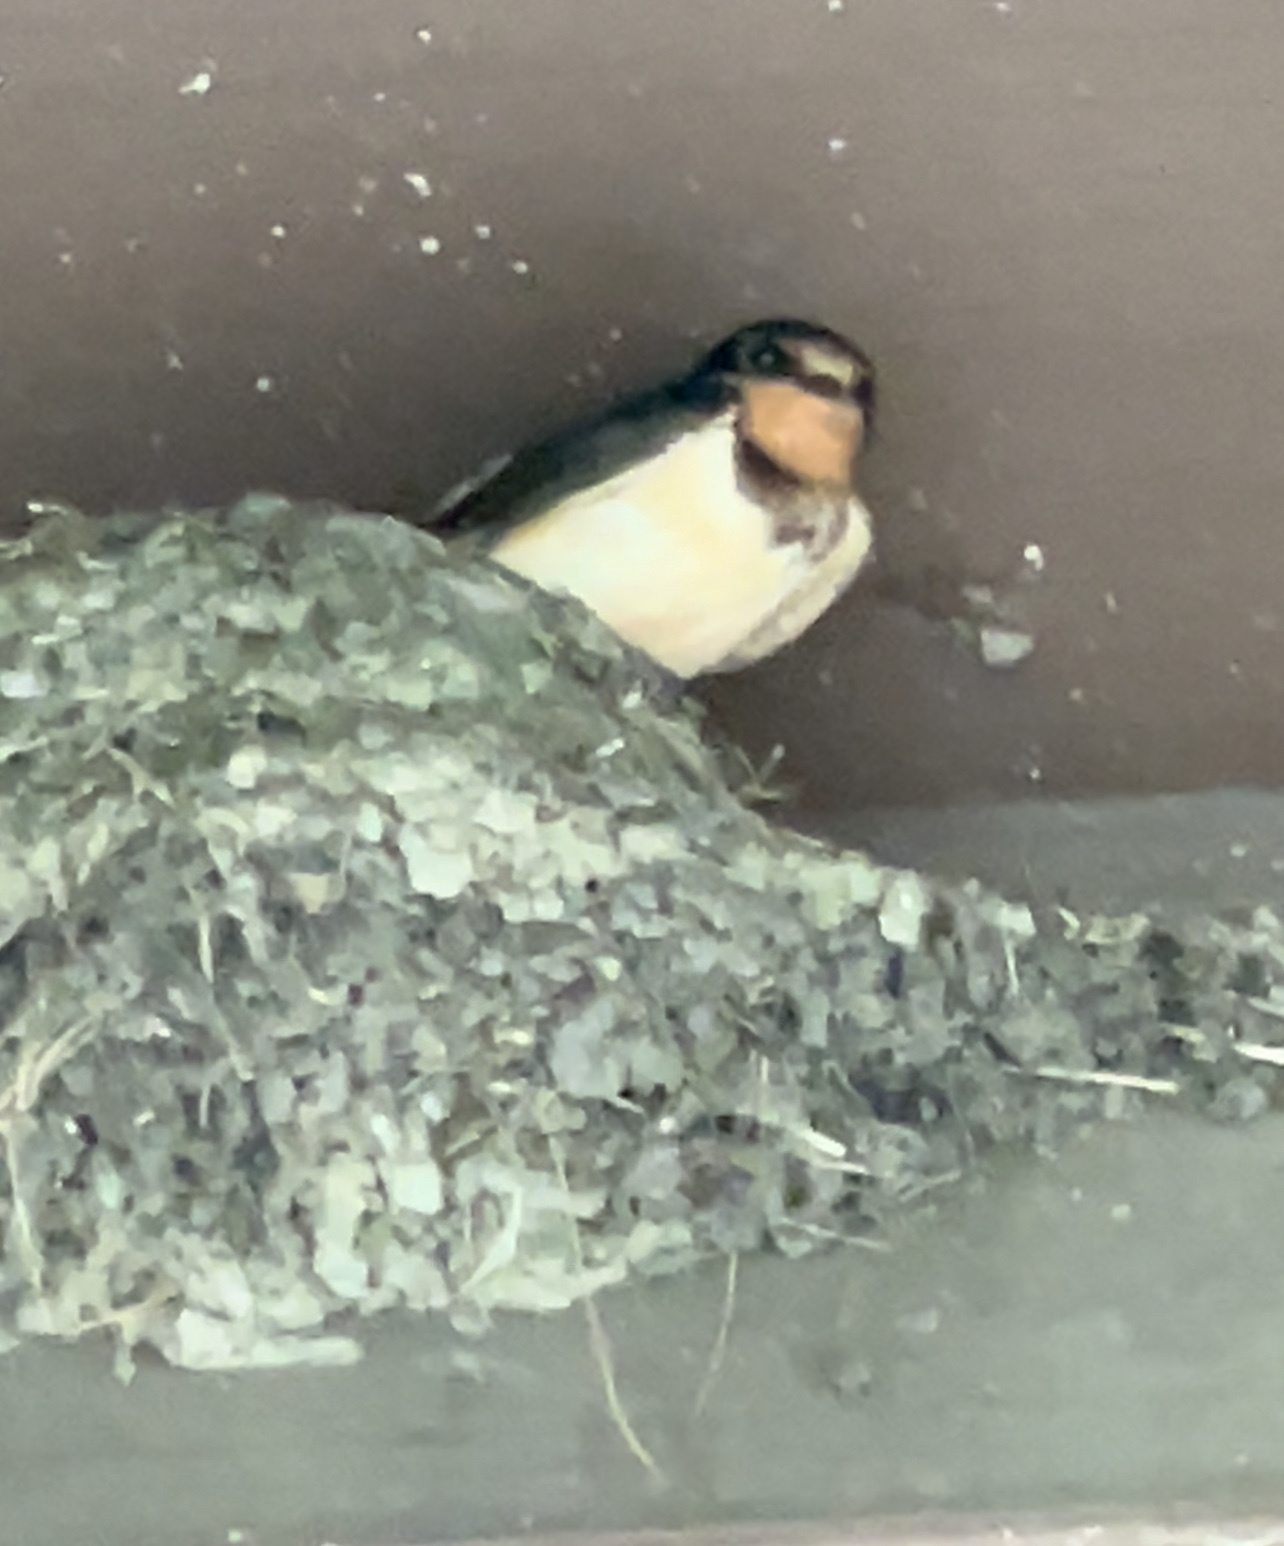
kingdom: Animalia
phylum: Chordata
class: Aves
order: Passeriformes
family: Hirundinidae
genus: Hirundo
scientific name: Hirundo rustica
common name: Barn swallow
